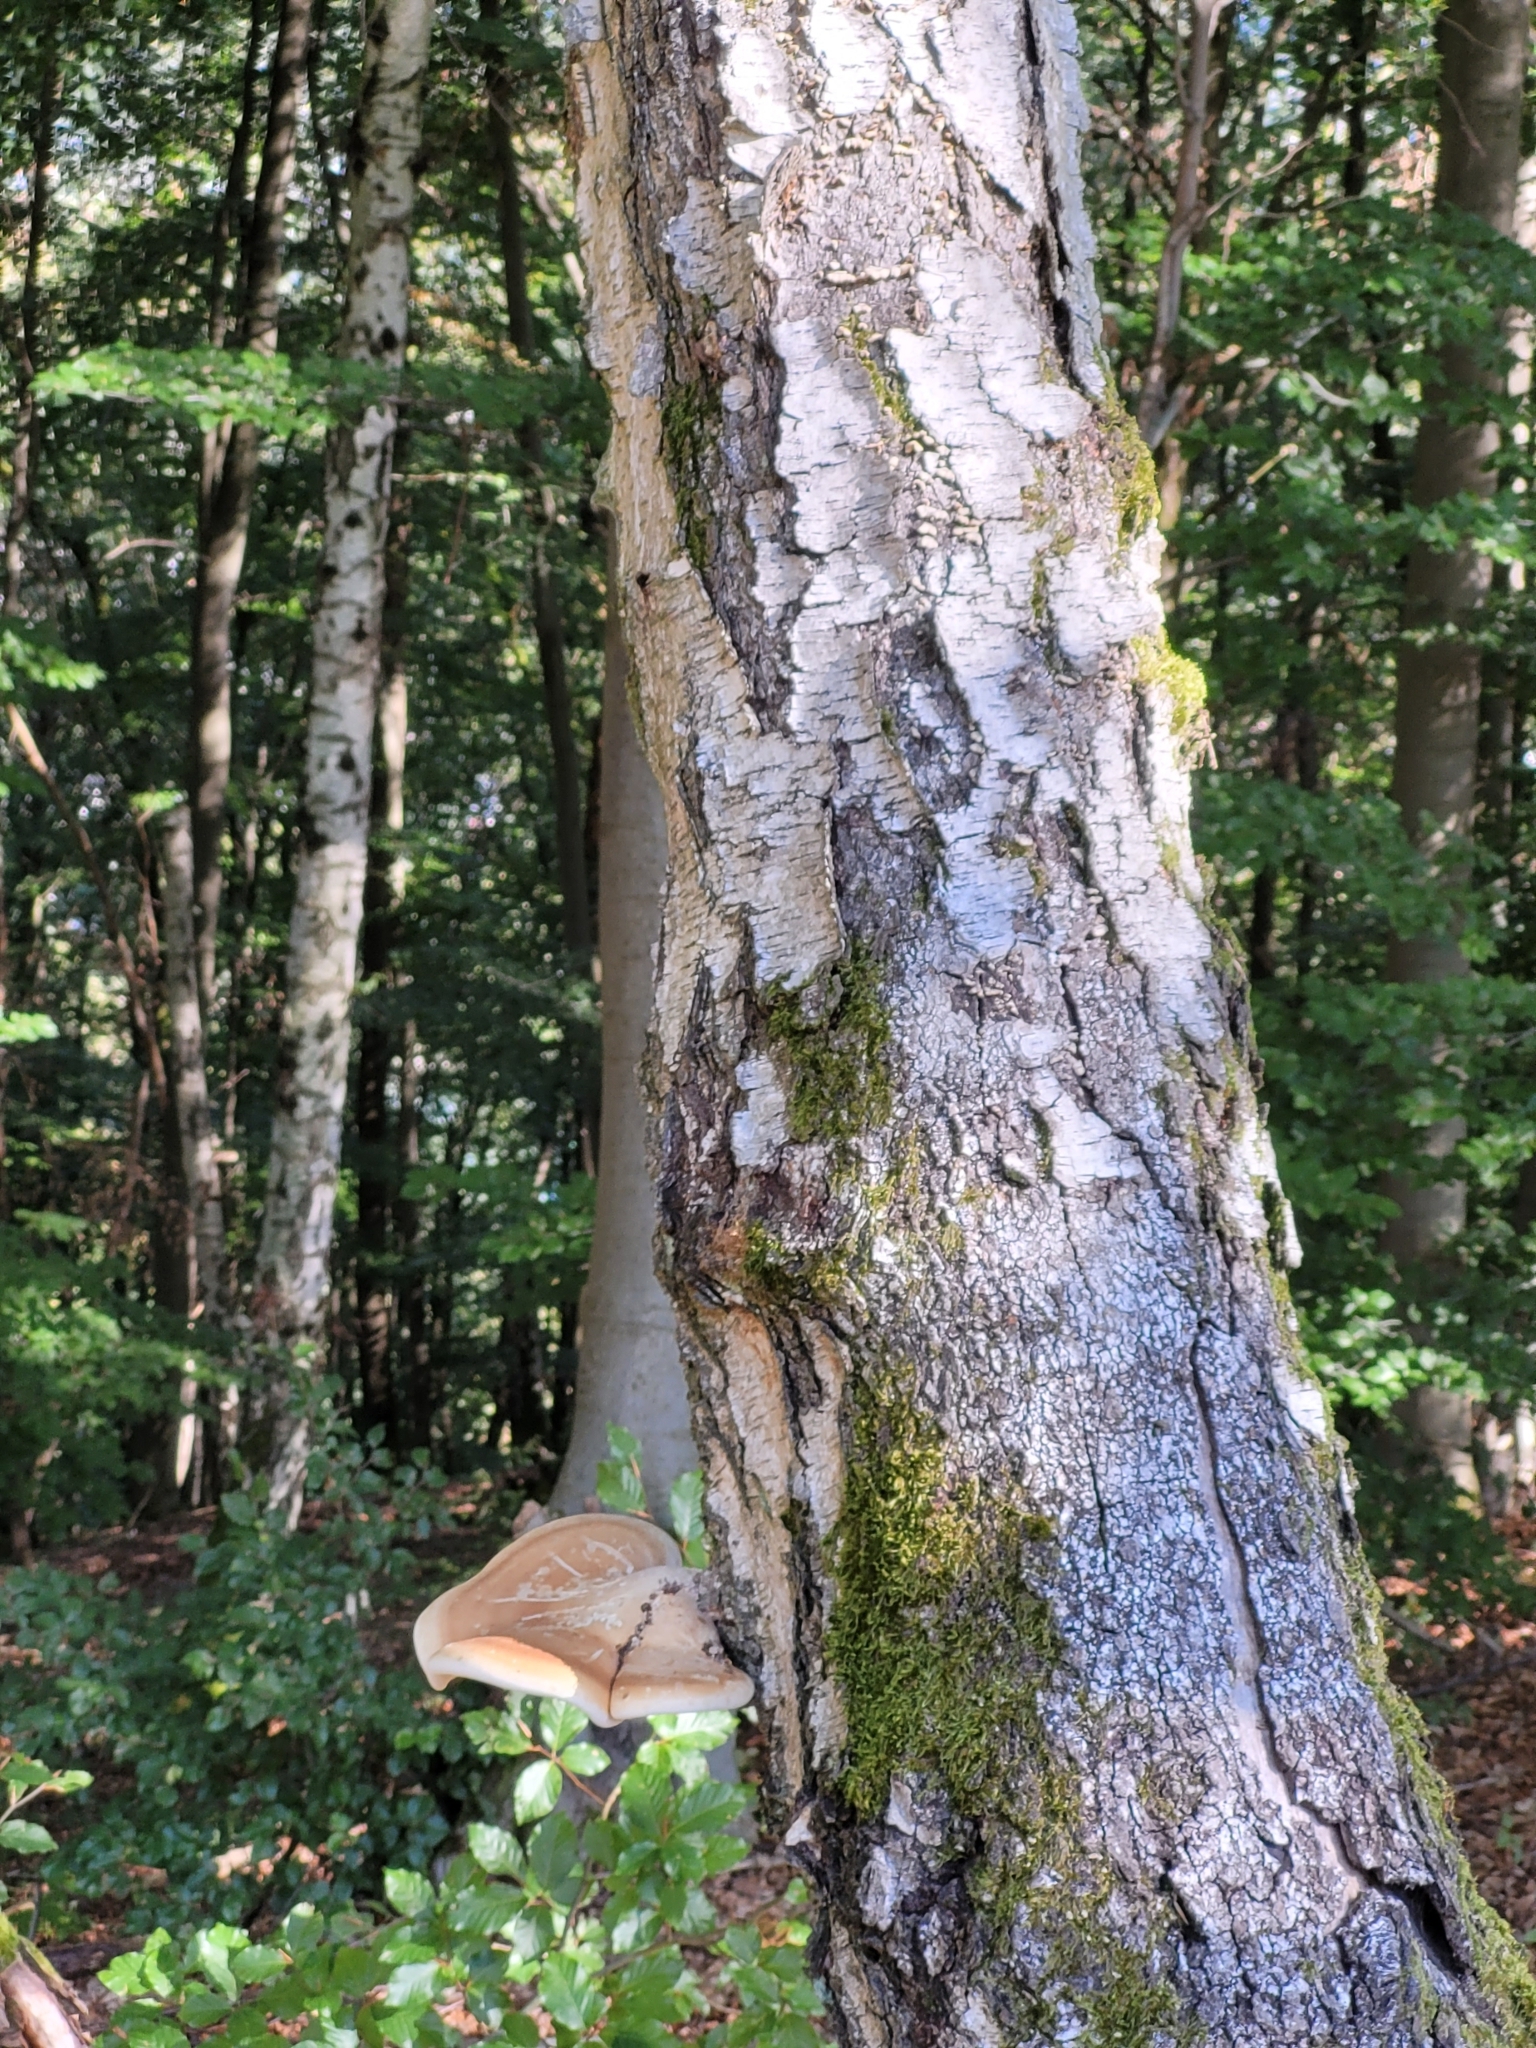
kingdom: Fungi
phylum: Basidiomycota
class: Agaricomycetes
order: Polyporales
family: Fomitopsidaceae
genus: Fomitopsis
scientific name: Fomitopsis betulina
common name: Birch polypore
